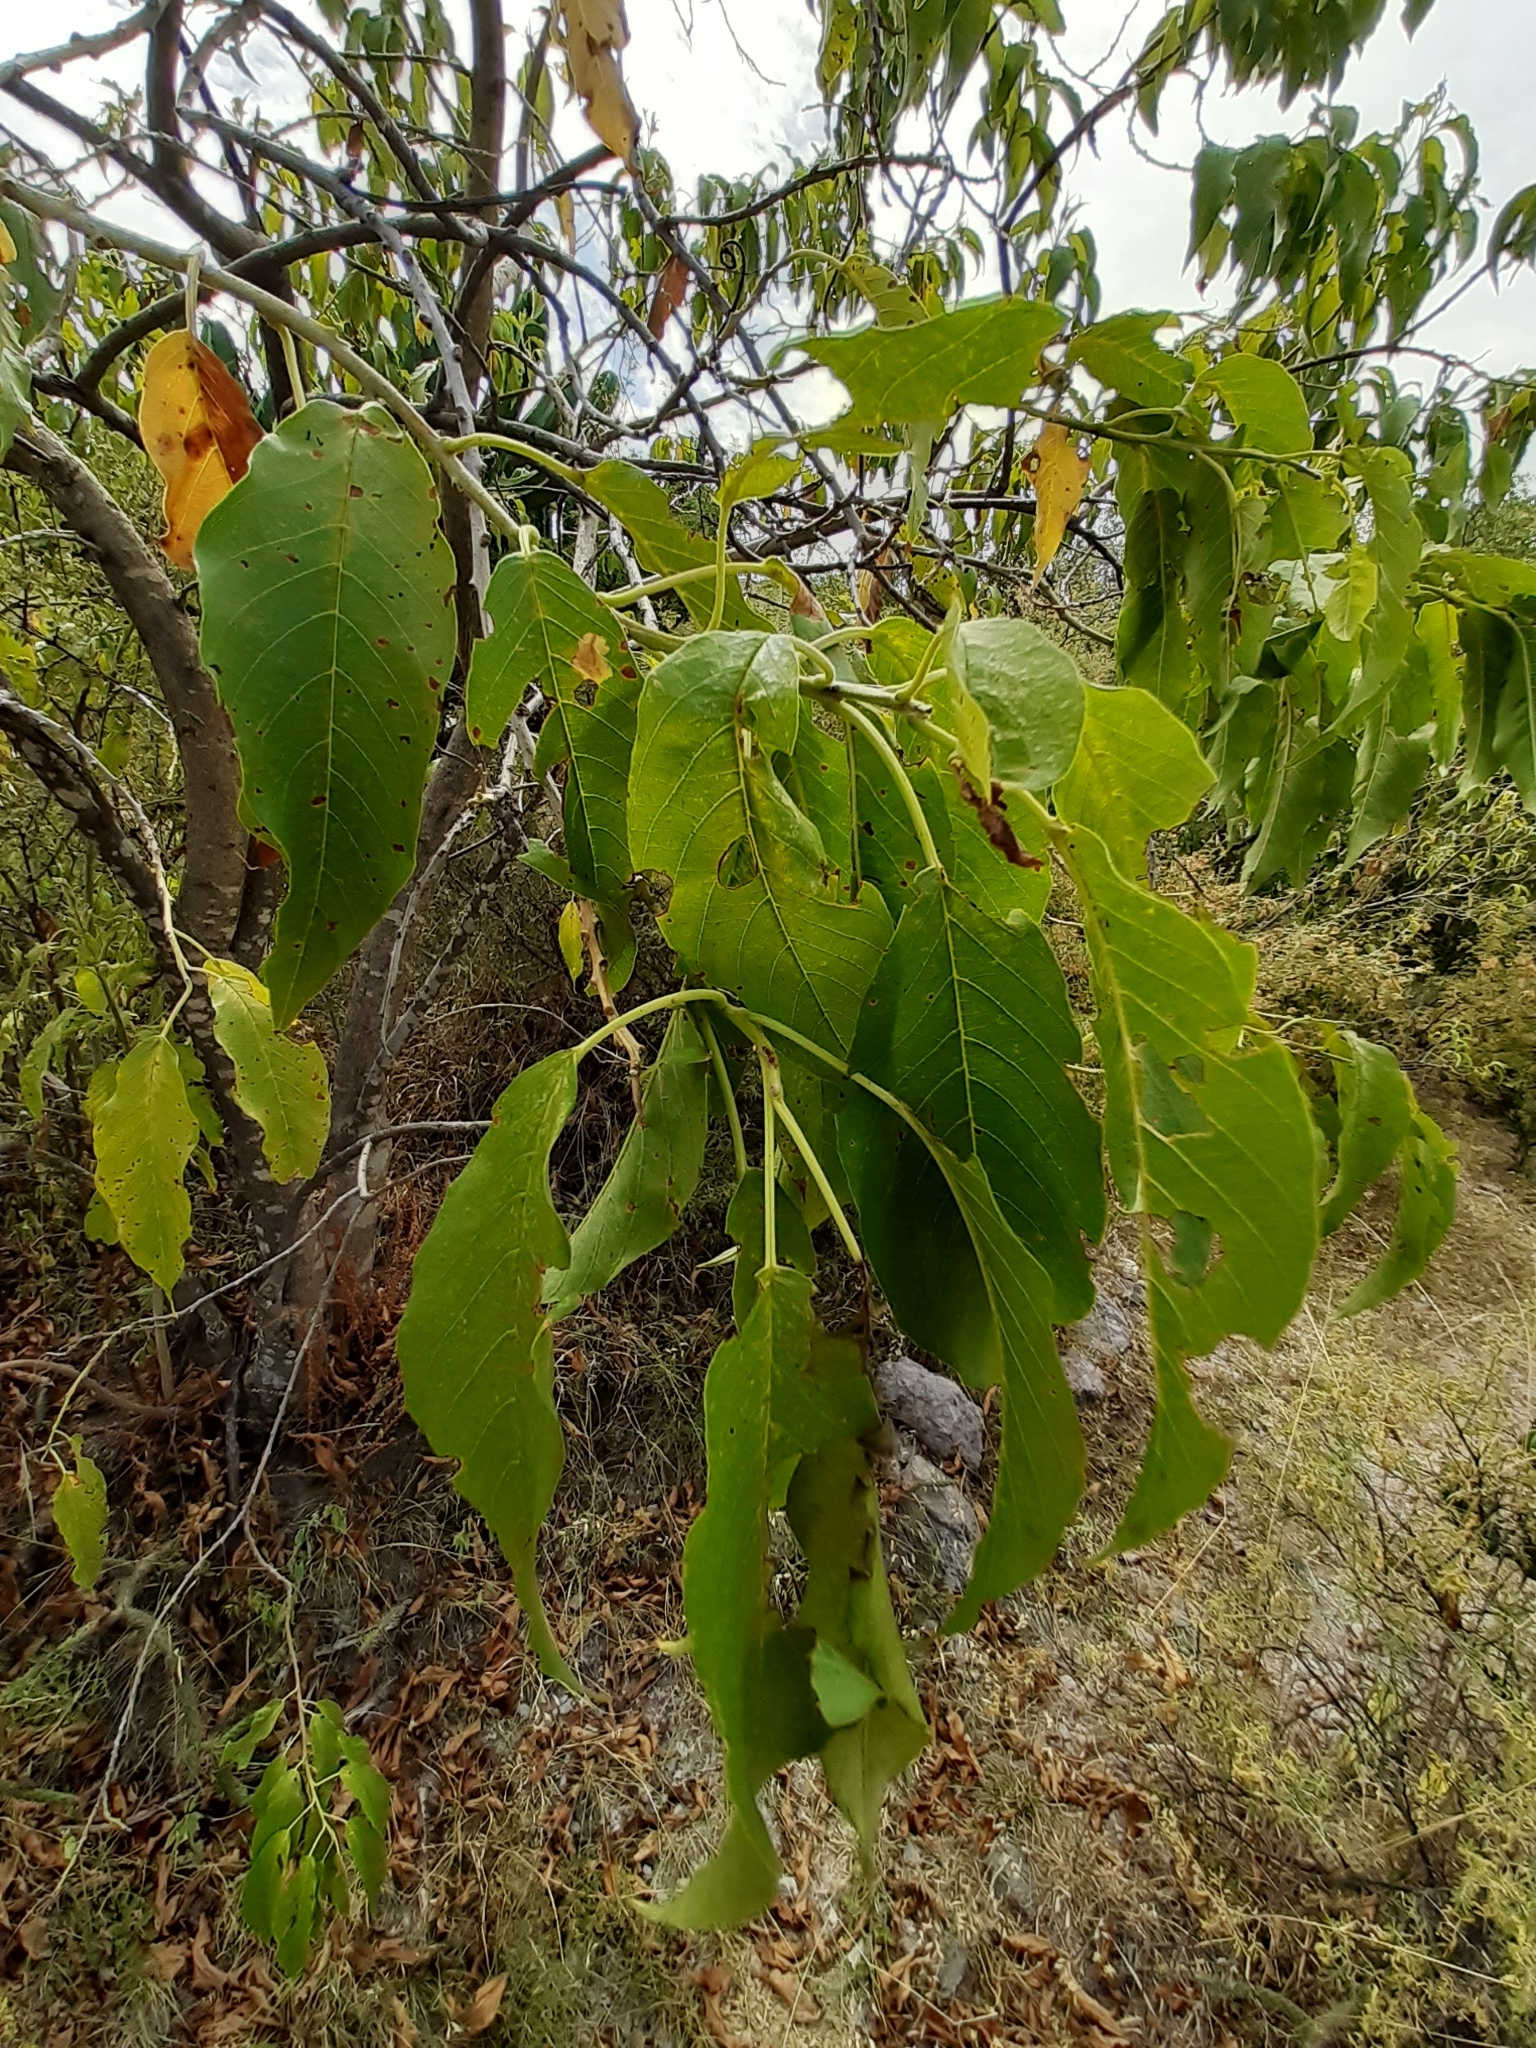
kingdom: Plantae
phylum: Tracheophyta
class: Magnoliopsida
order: Solanales
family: Convolvulaceae
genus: Ipomoea
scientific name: Ipomoea murucoides
